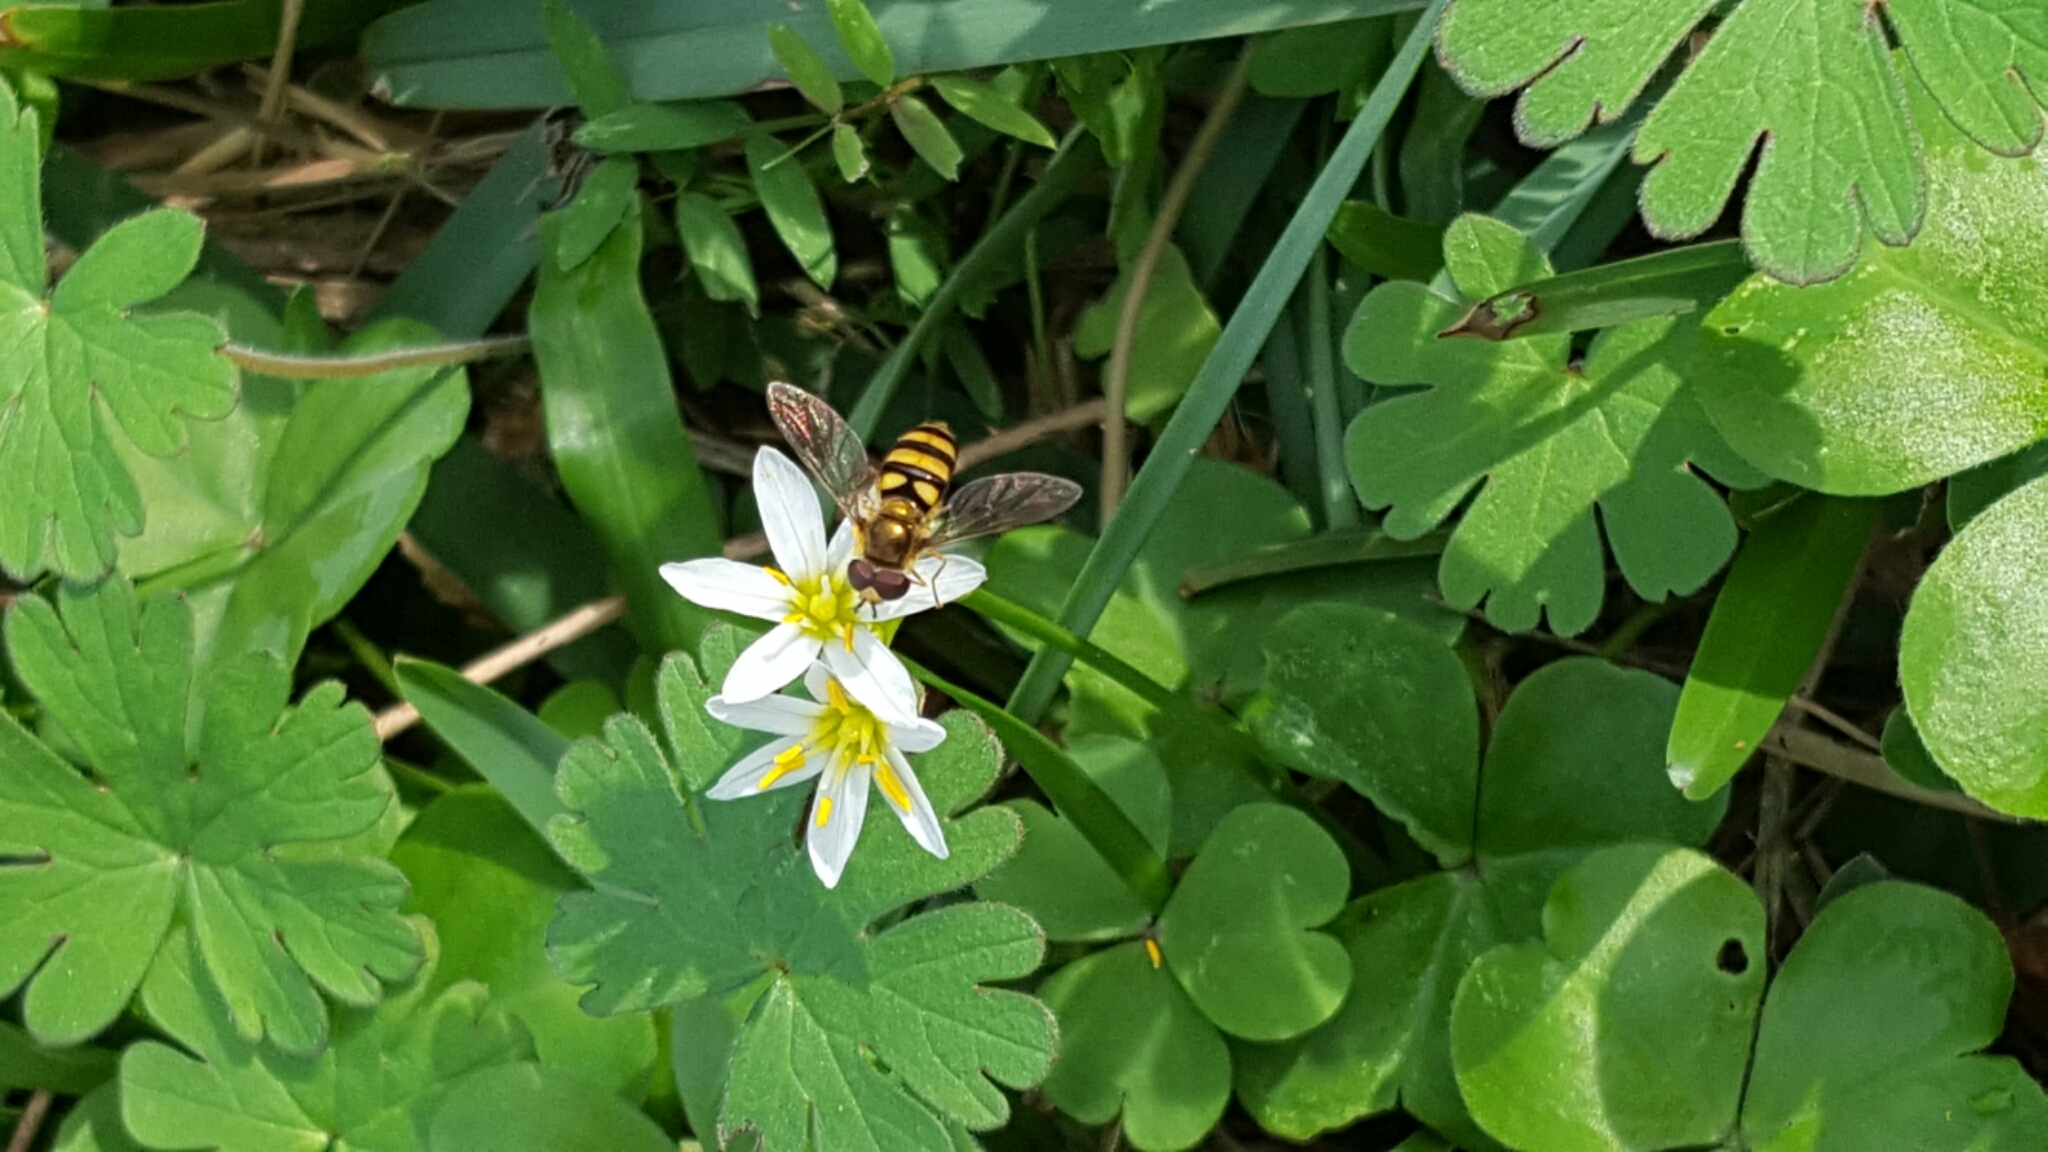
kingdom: Animalia
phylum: Arthropoda
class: Insecta
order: Diptera
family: Syrphidae
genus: Eupeodes
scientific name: Eupeodes
